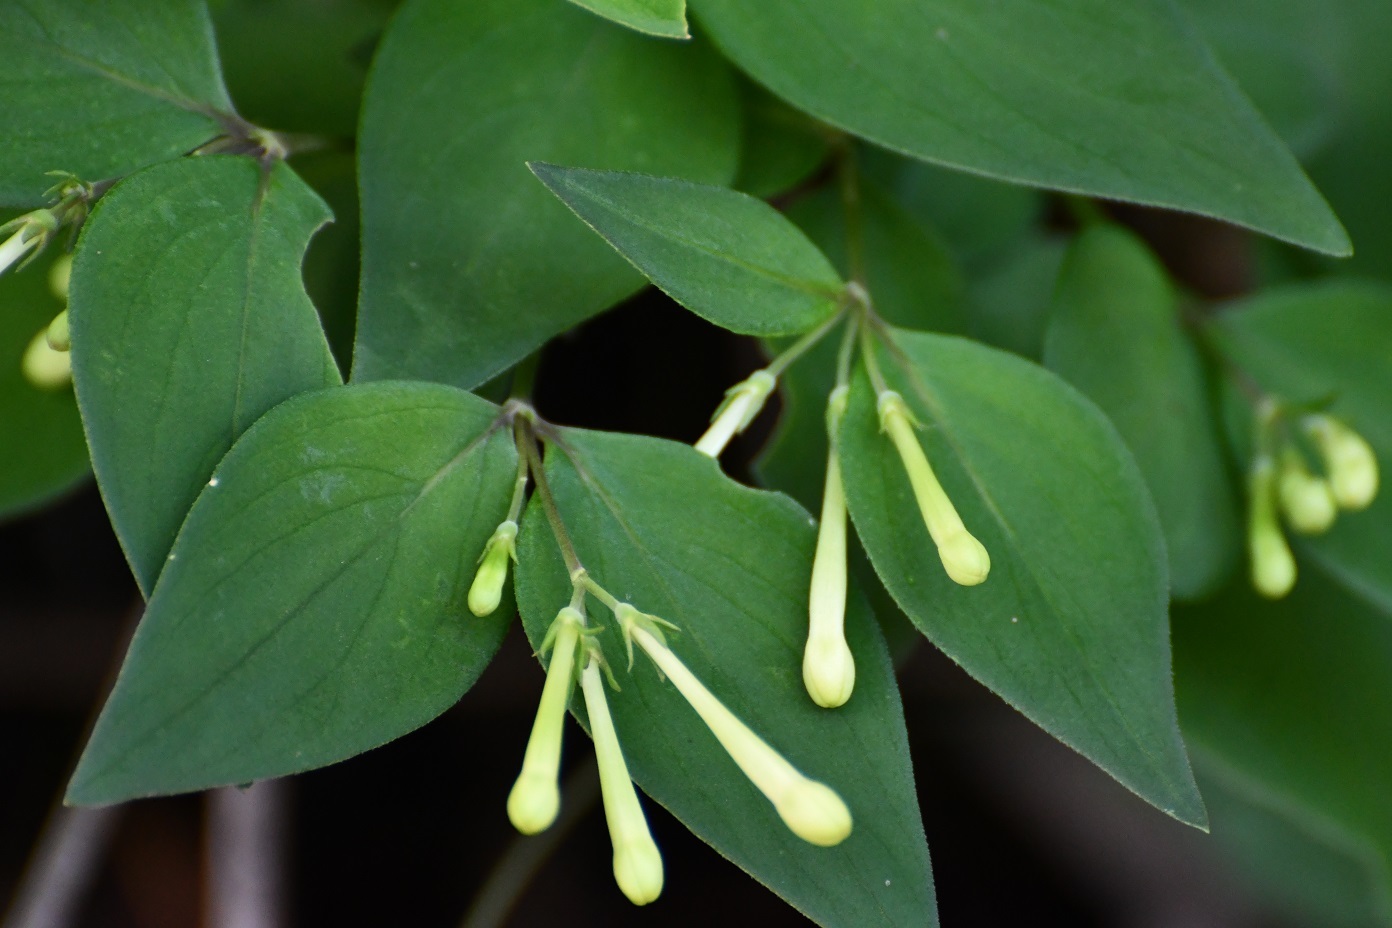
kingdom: Plantae
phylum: Tracheophyta
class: Magnoliopsida
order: Gentianales
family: Rubiaceae
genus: Bouvardia
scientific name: Bouvardia glabra
